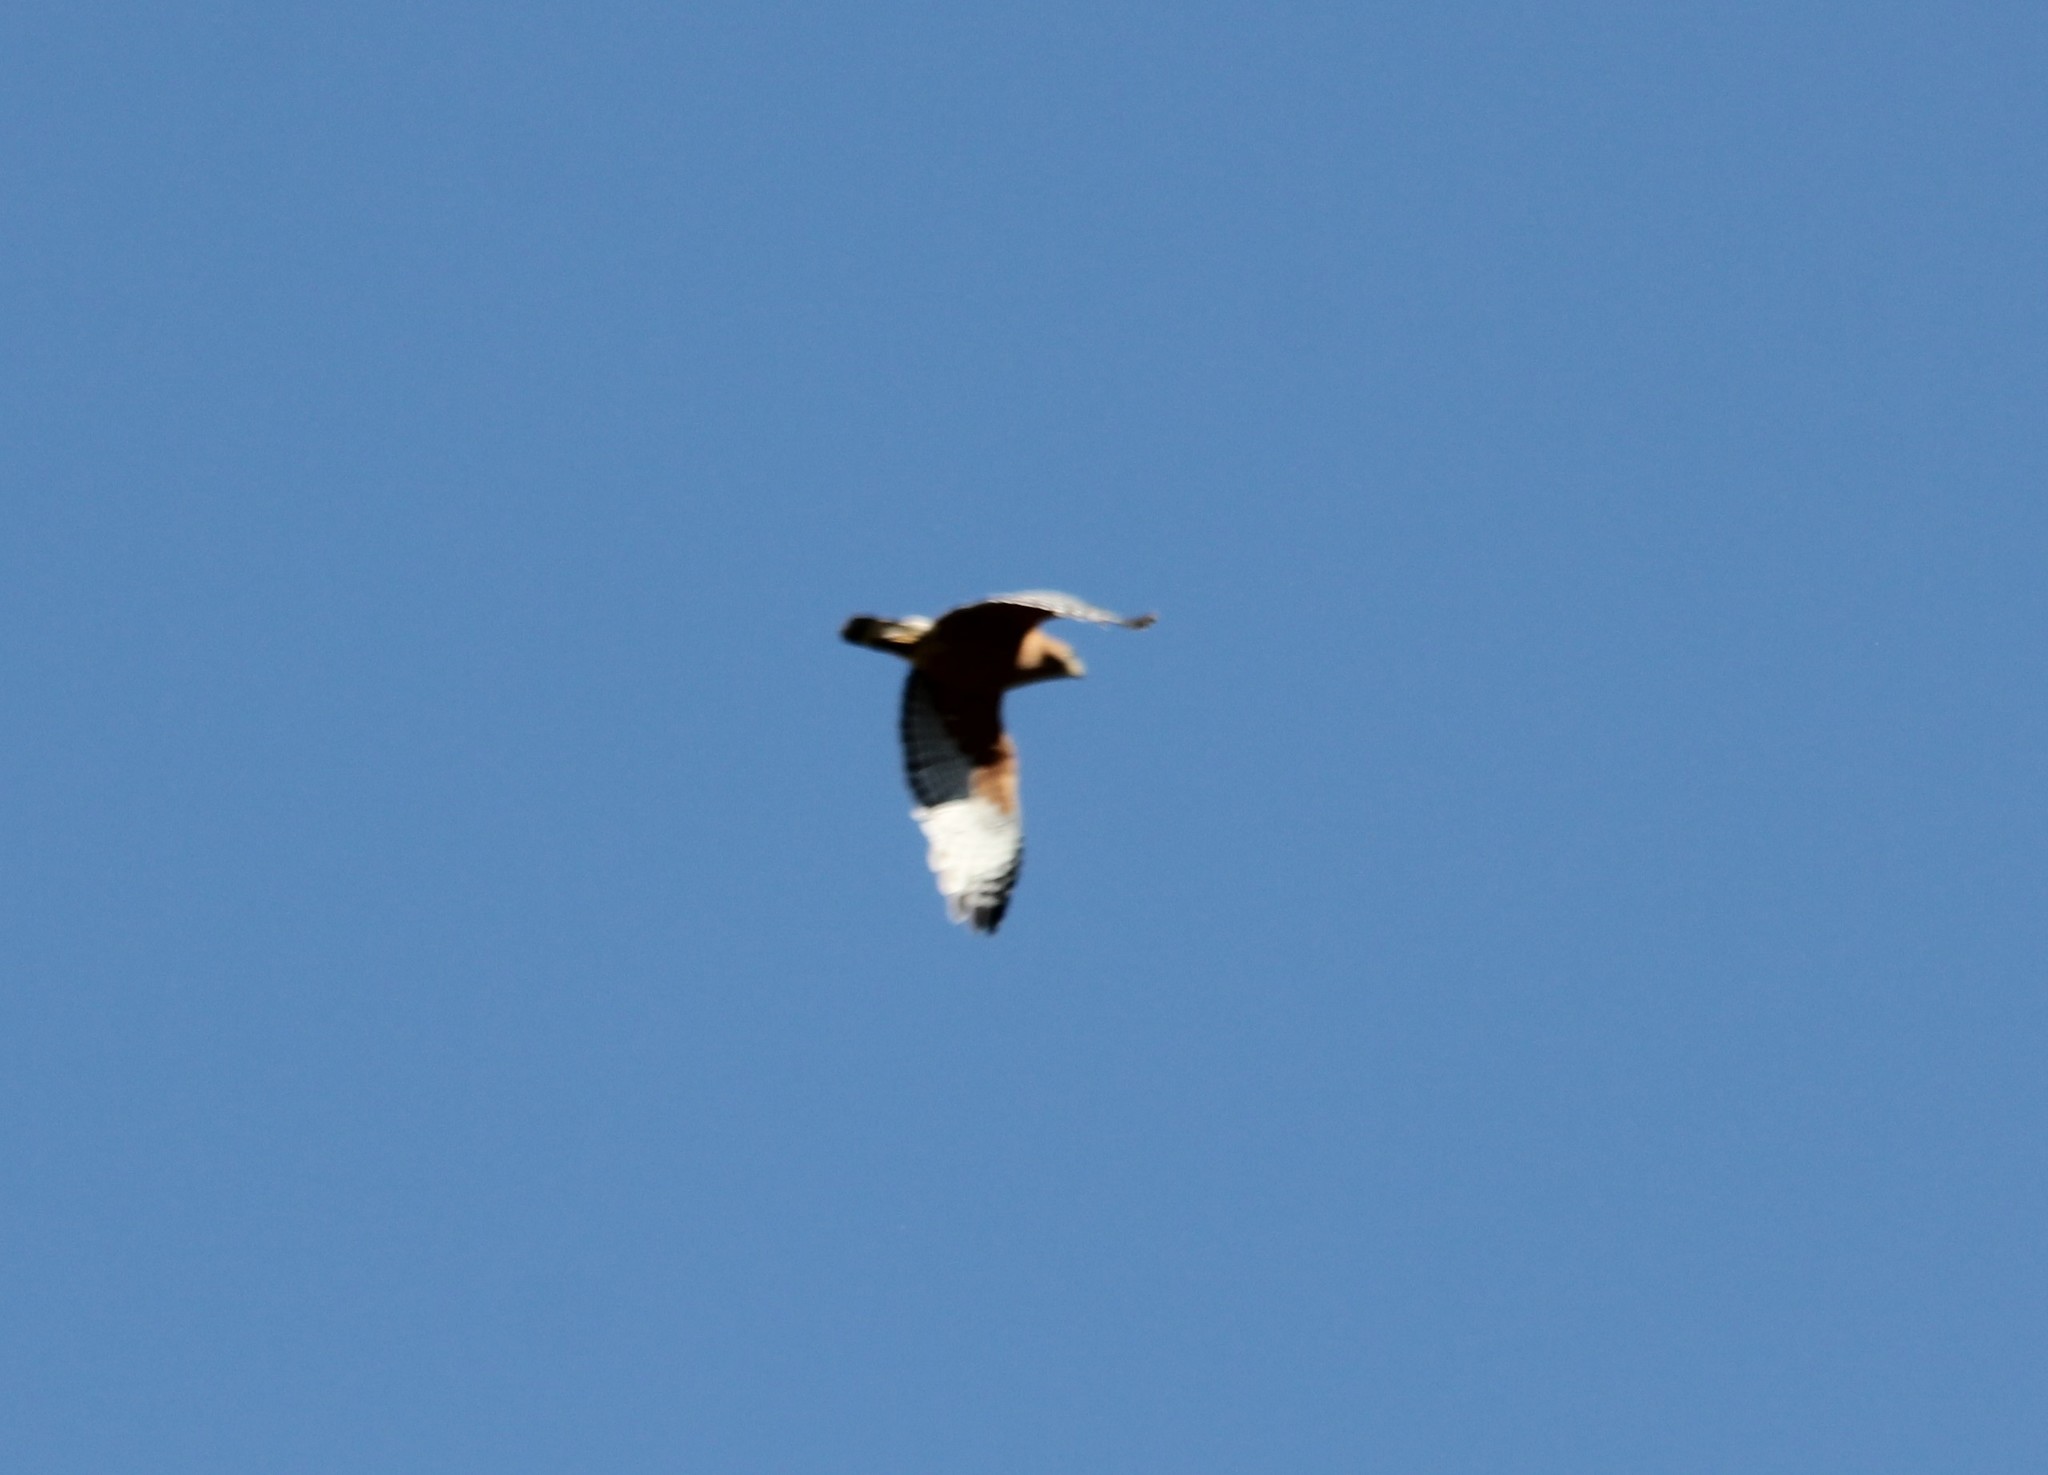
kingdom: Animalia
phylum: Chordata
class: Aves
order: Accipitriformes
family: Accipitridae
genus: Buteo
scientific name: Buteo lineatus
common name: Red-shouldered hawk
